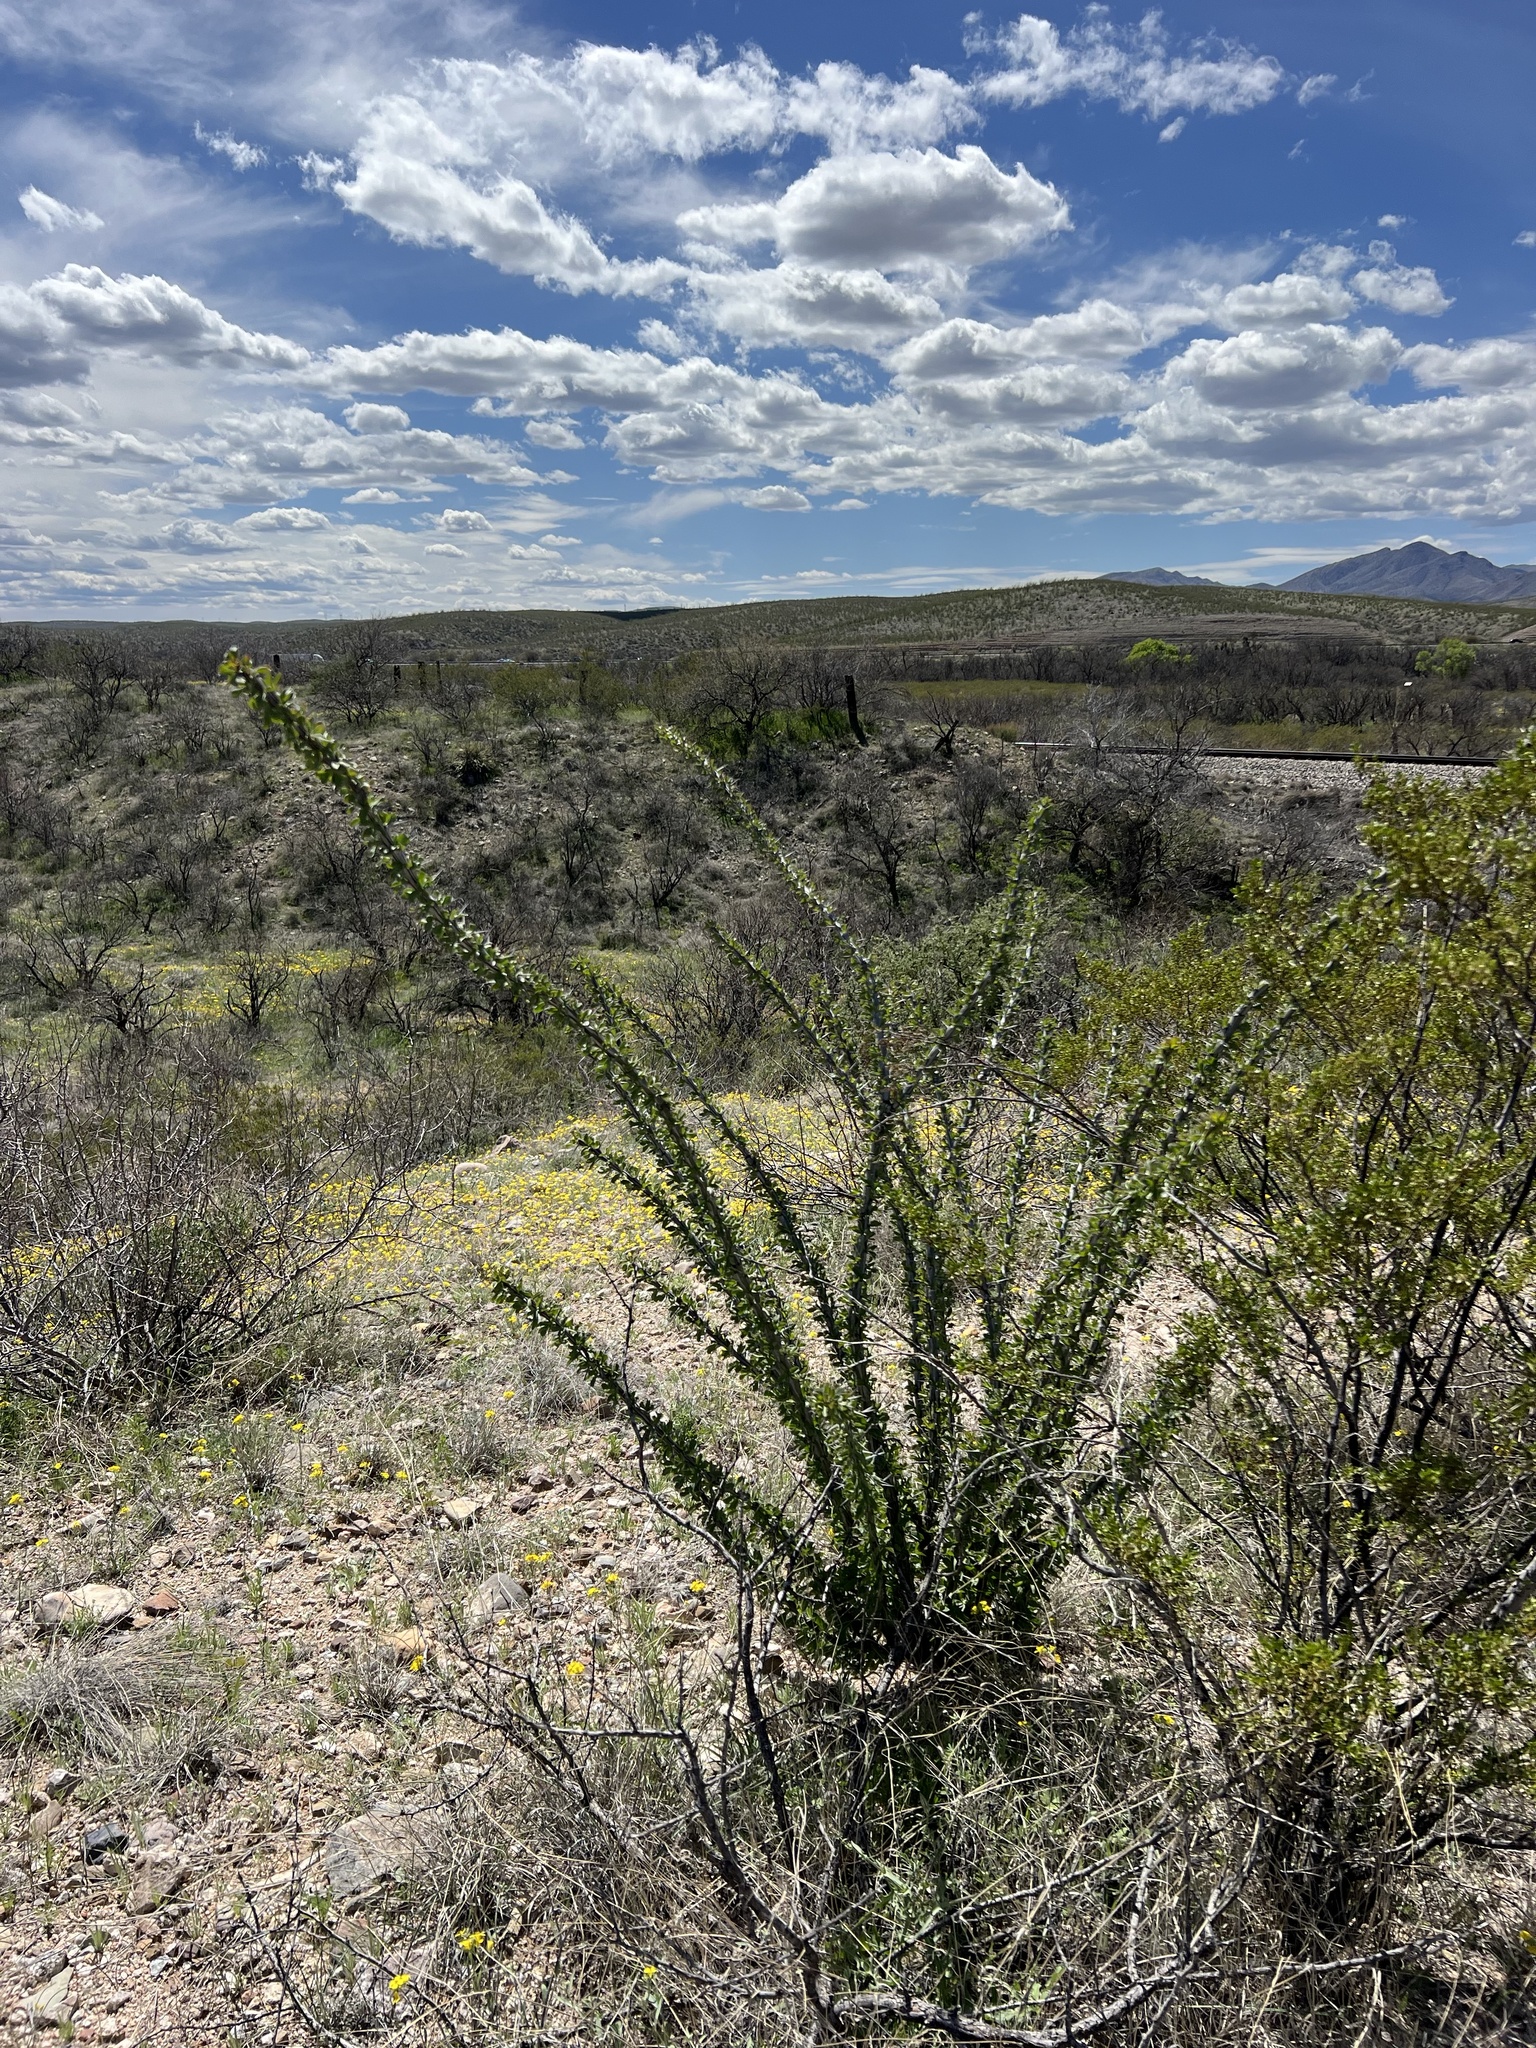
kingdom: Plantae
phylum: Tracheophyta
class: Magnoliopsida
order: Ericales
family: Fouquieriaceae
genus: Fouquieria
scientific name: Fouquieria splendens
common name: Vine-cactus
